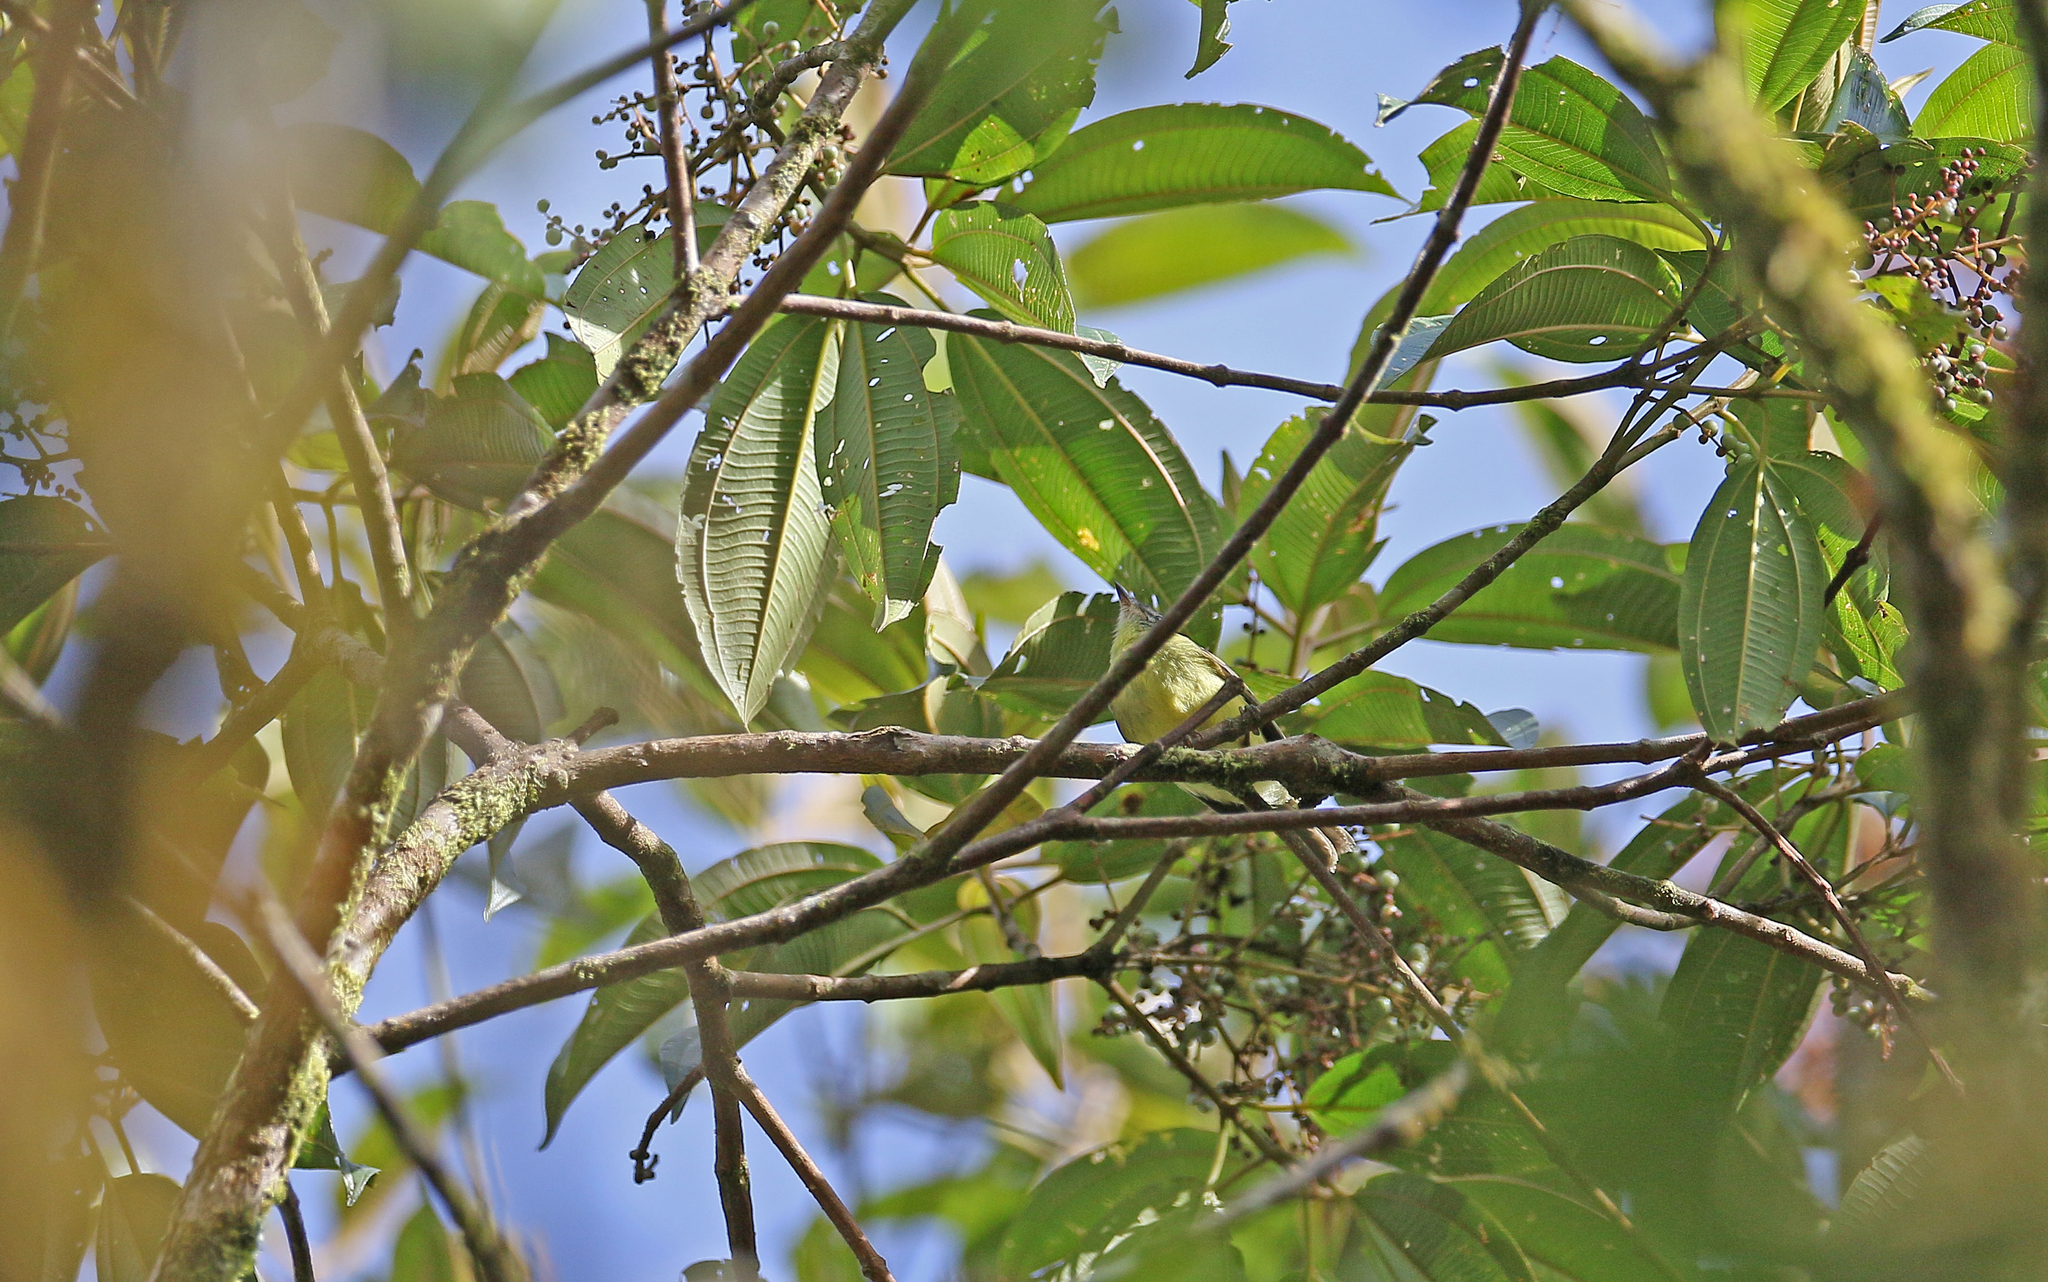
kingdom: Animalia
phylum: Chordata
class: Aves
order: Passeriformes
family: Tyrannidae
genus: Mecocerculus
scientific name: Mecocerculus minor
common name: Sulphur-bellied tyrannulet
